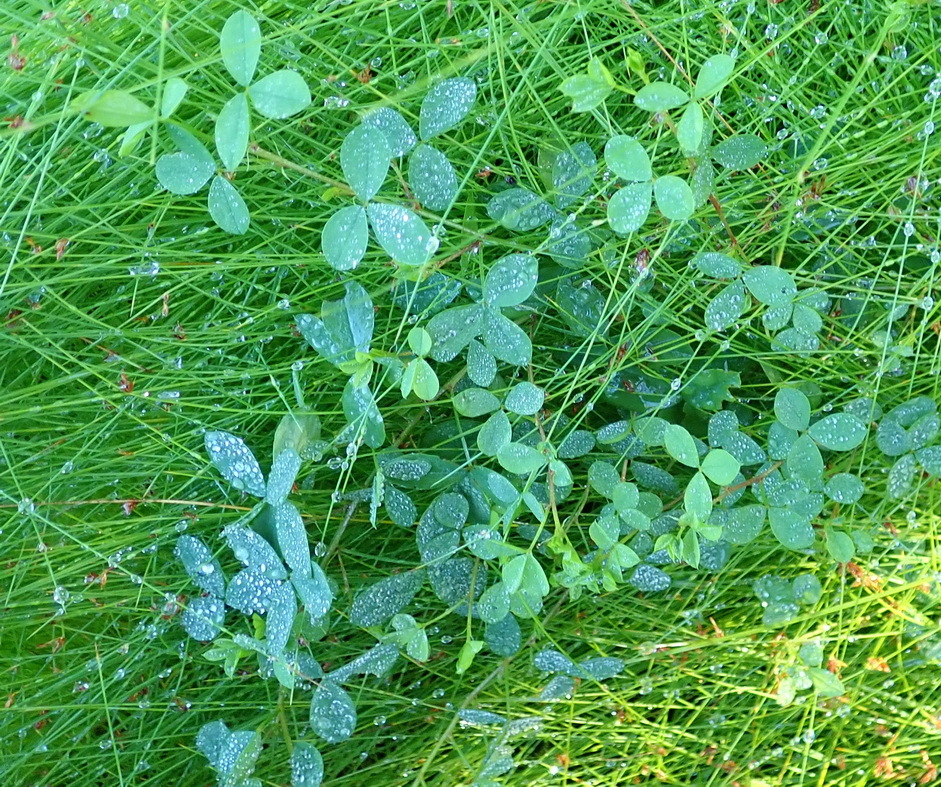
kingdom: Plantae
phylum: Tracheophyta
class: Magnoliopsida
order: Fabales
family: Fabaceae
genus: Indigofera
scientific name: Indigofera erecta
